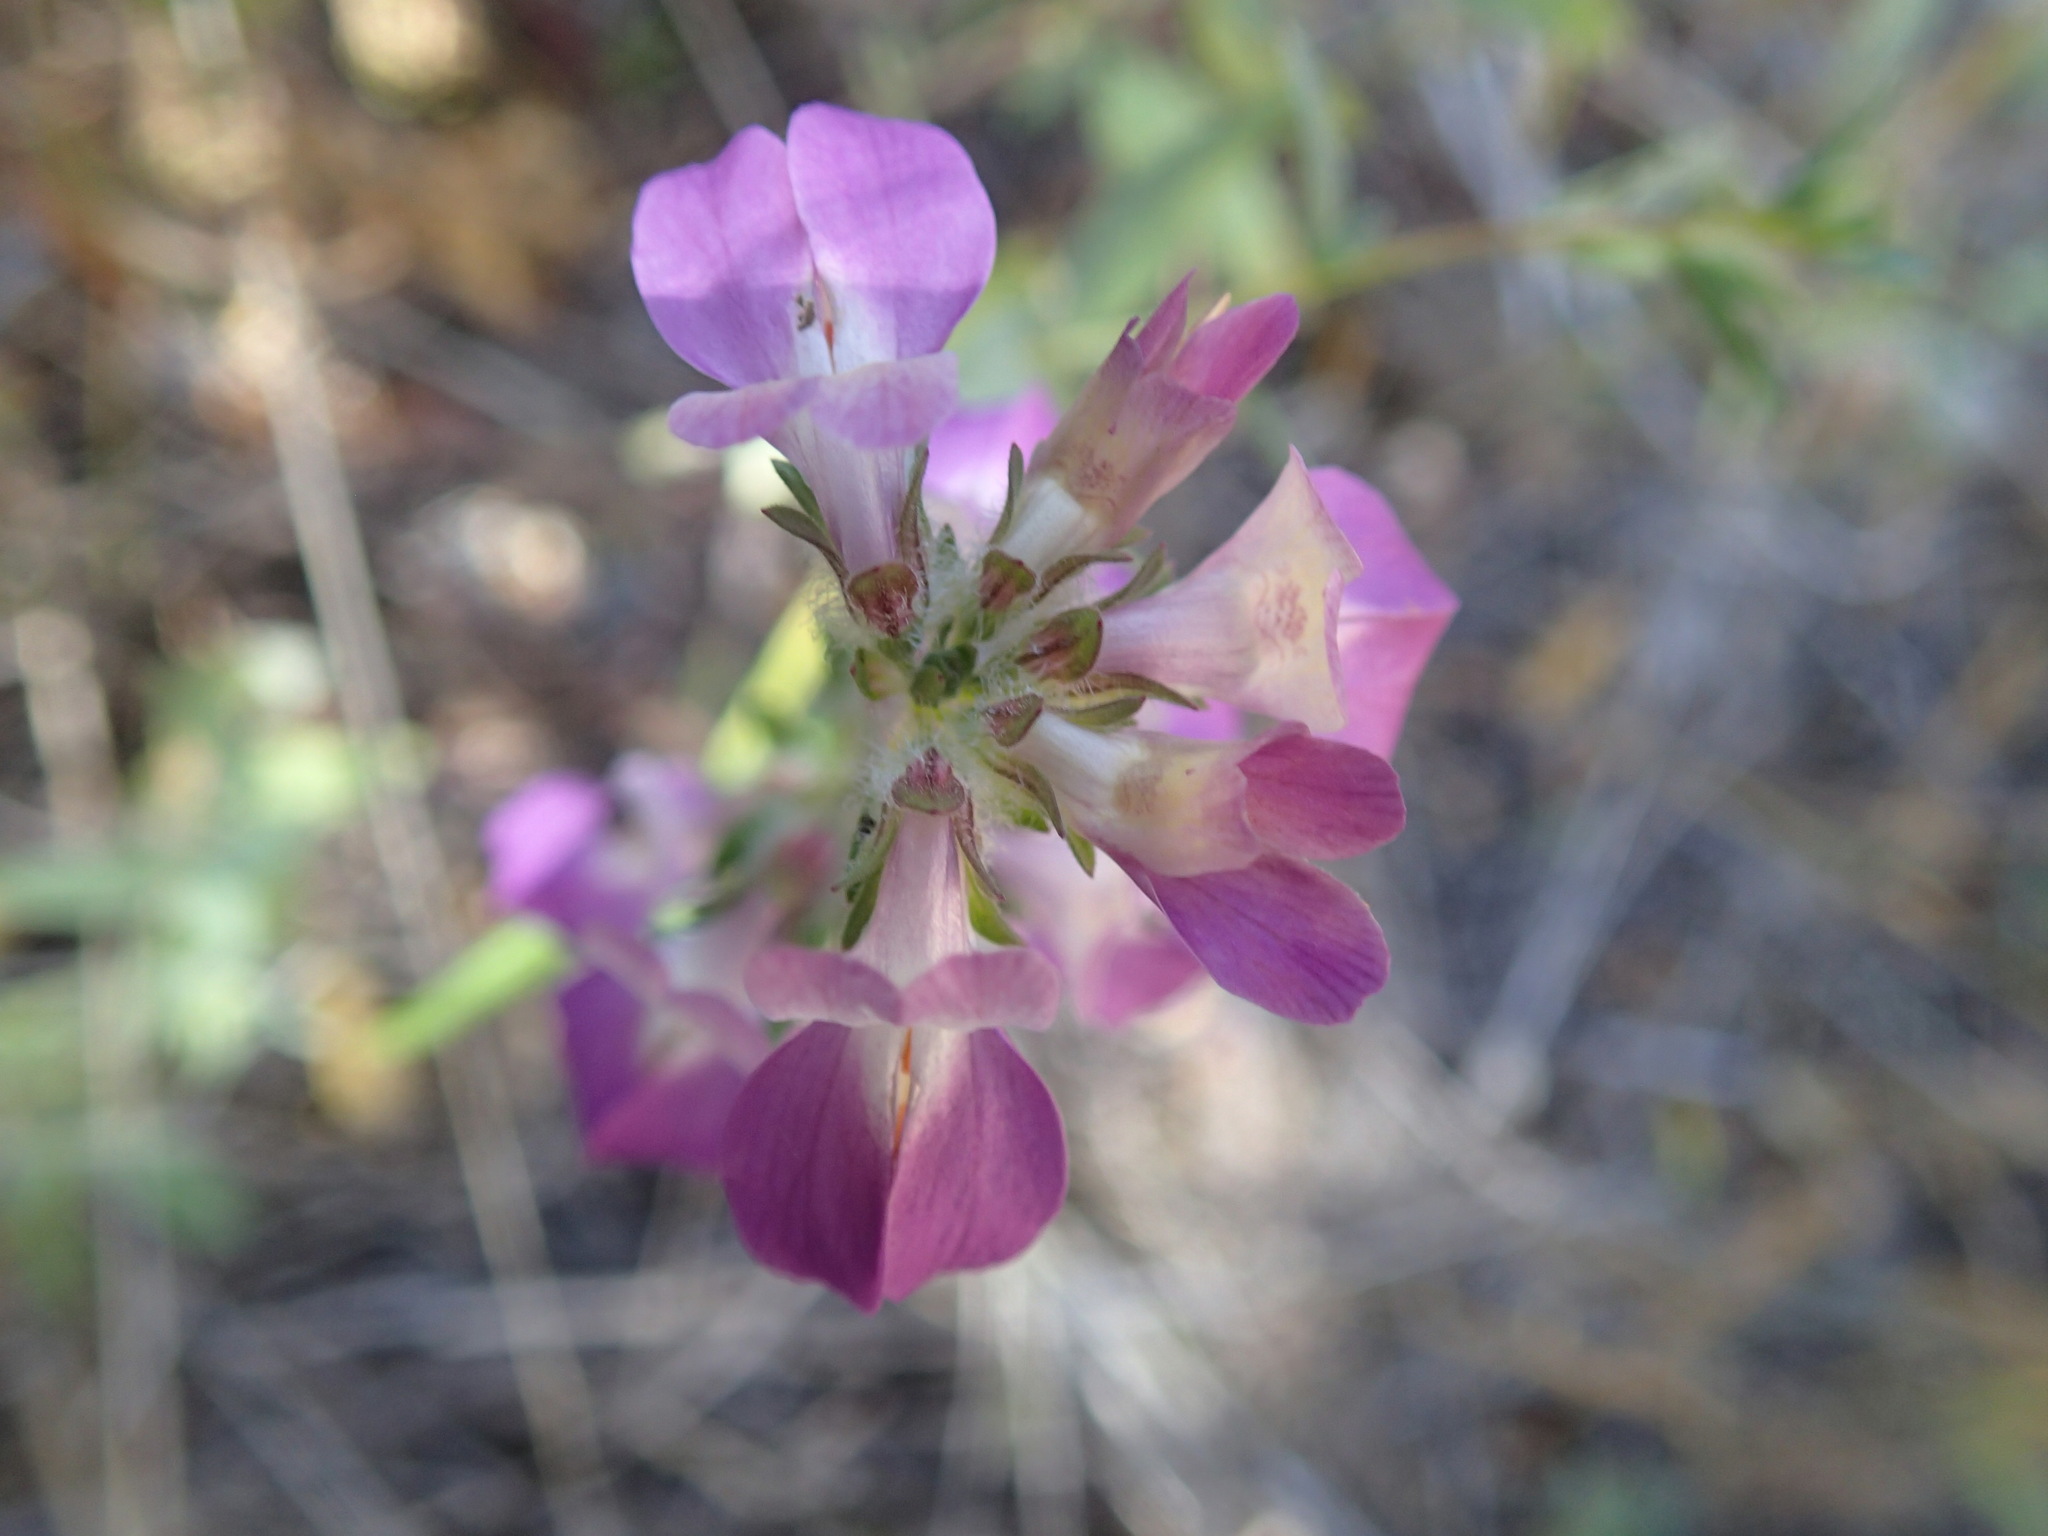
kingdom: Plantae
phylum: Tracheophyta
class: Magnoliopsida
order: Lamiales
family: Plantaginaceae
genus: Collinsia
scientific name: Collinsia heterophylla
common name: Chinese-houses
